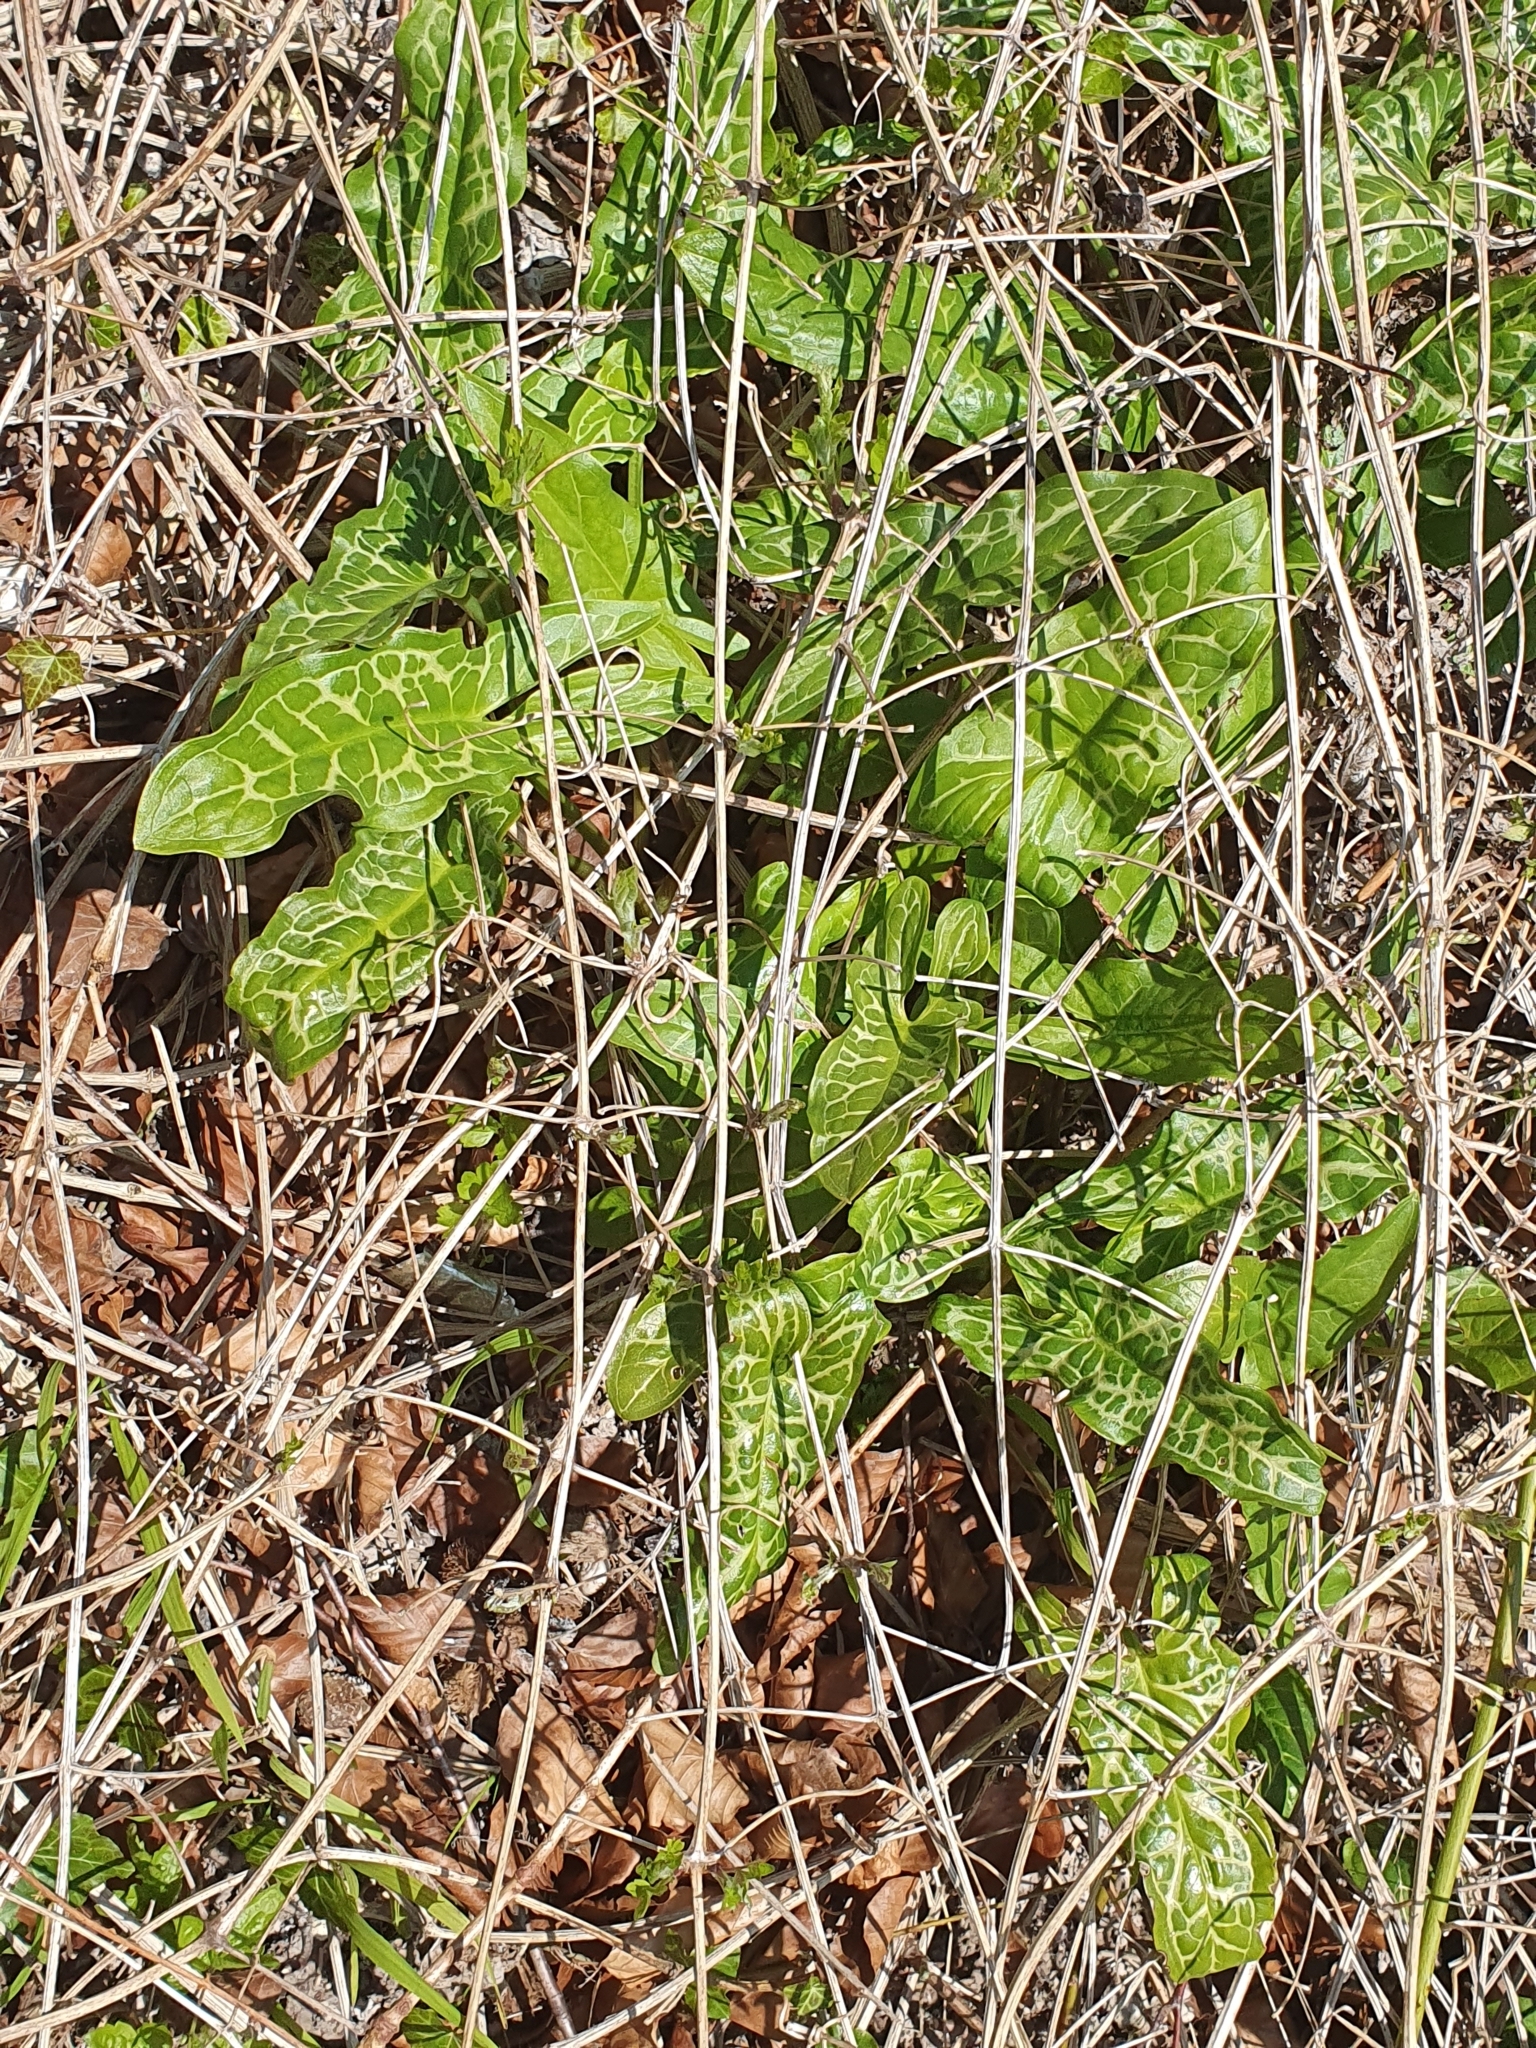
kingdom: Plantae
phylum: Tracheophyta
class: Liliopsida
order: Alismatales
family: Araceae
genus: Arum
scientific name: Arum italicum
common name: Italian lords-and-ladies
